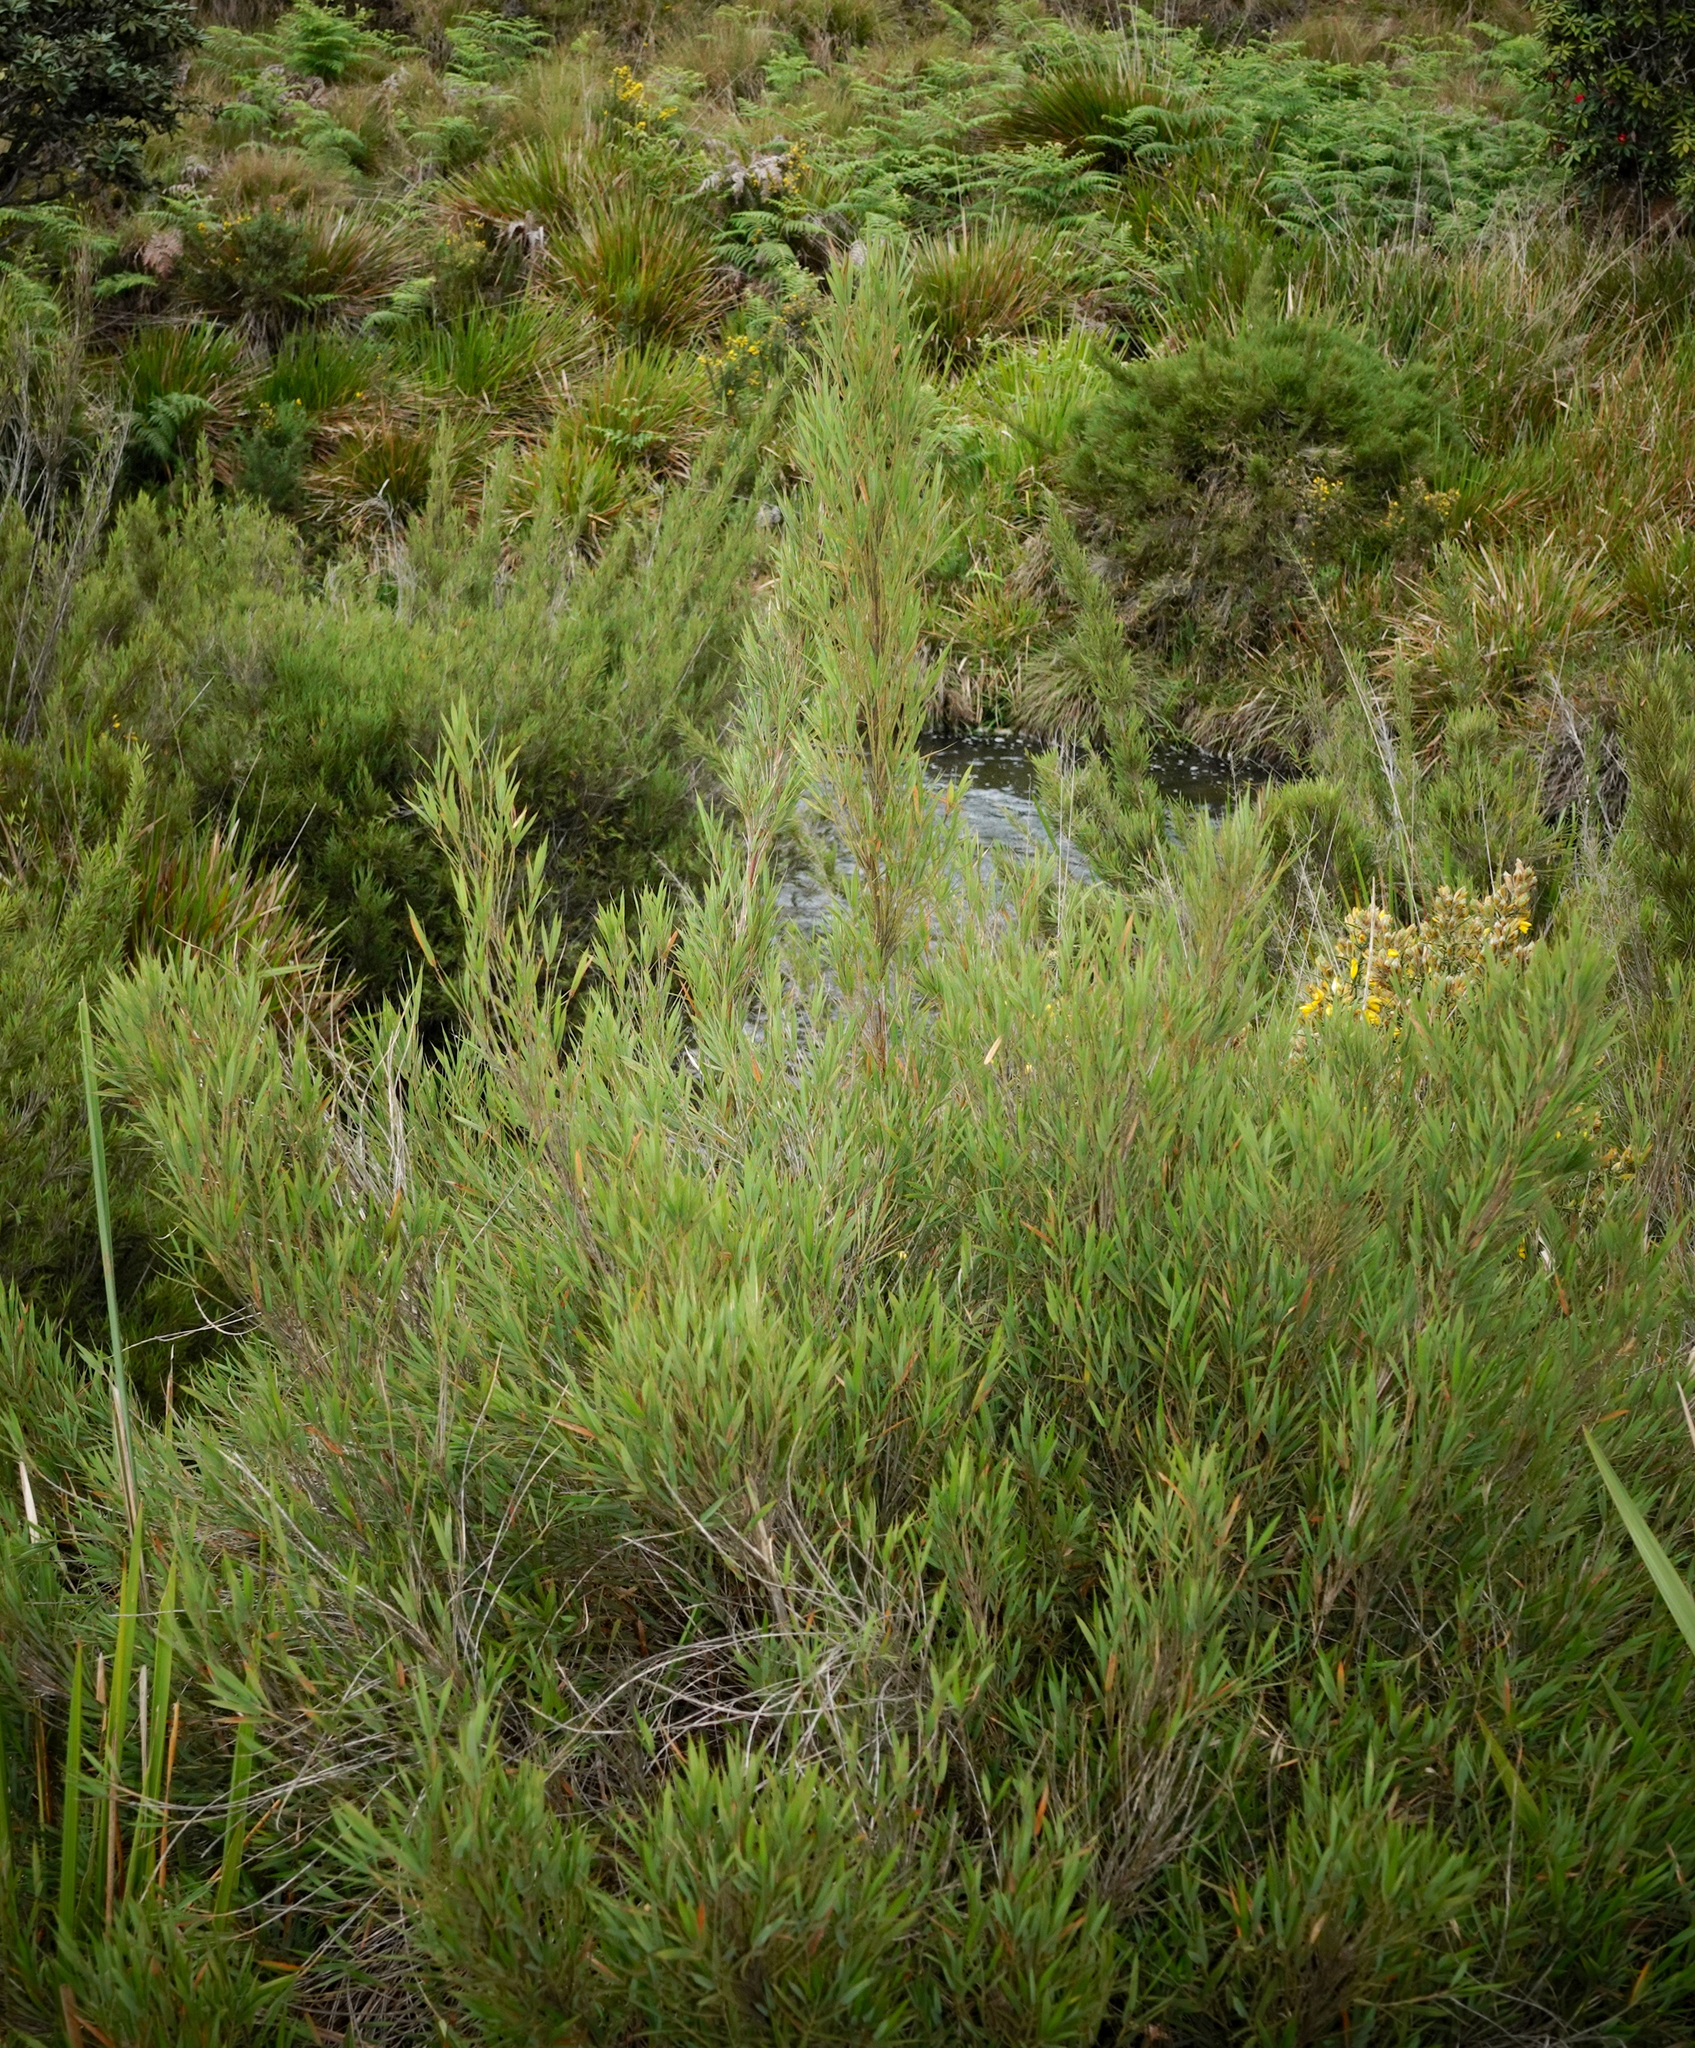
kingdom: Plantae
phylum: Tracheophyta
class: Liliopsida
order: Poales
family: Poaceae
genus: Kuruna
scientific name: Kuruna densifolia
